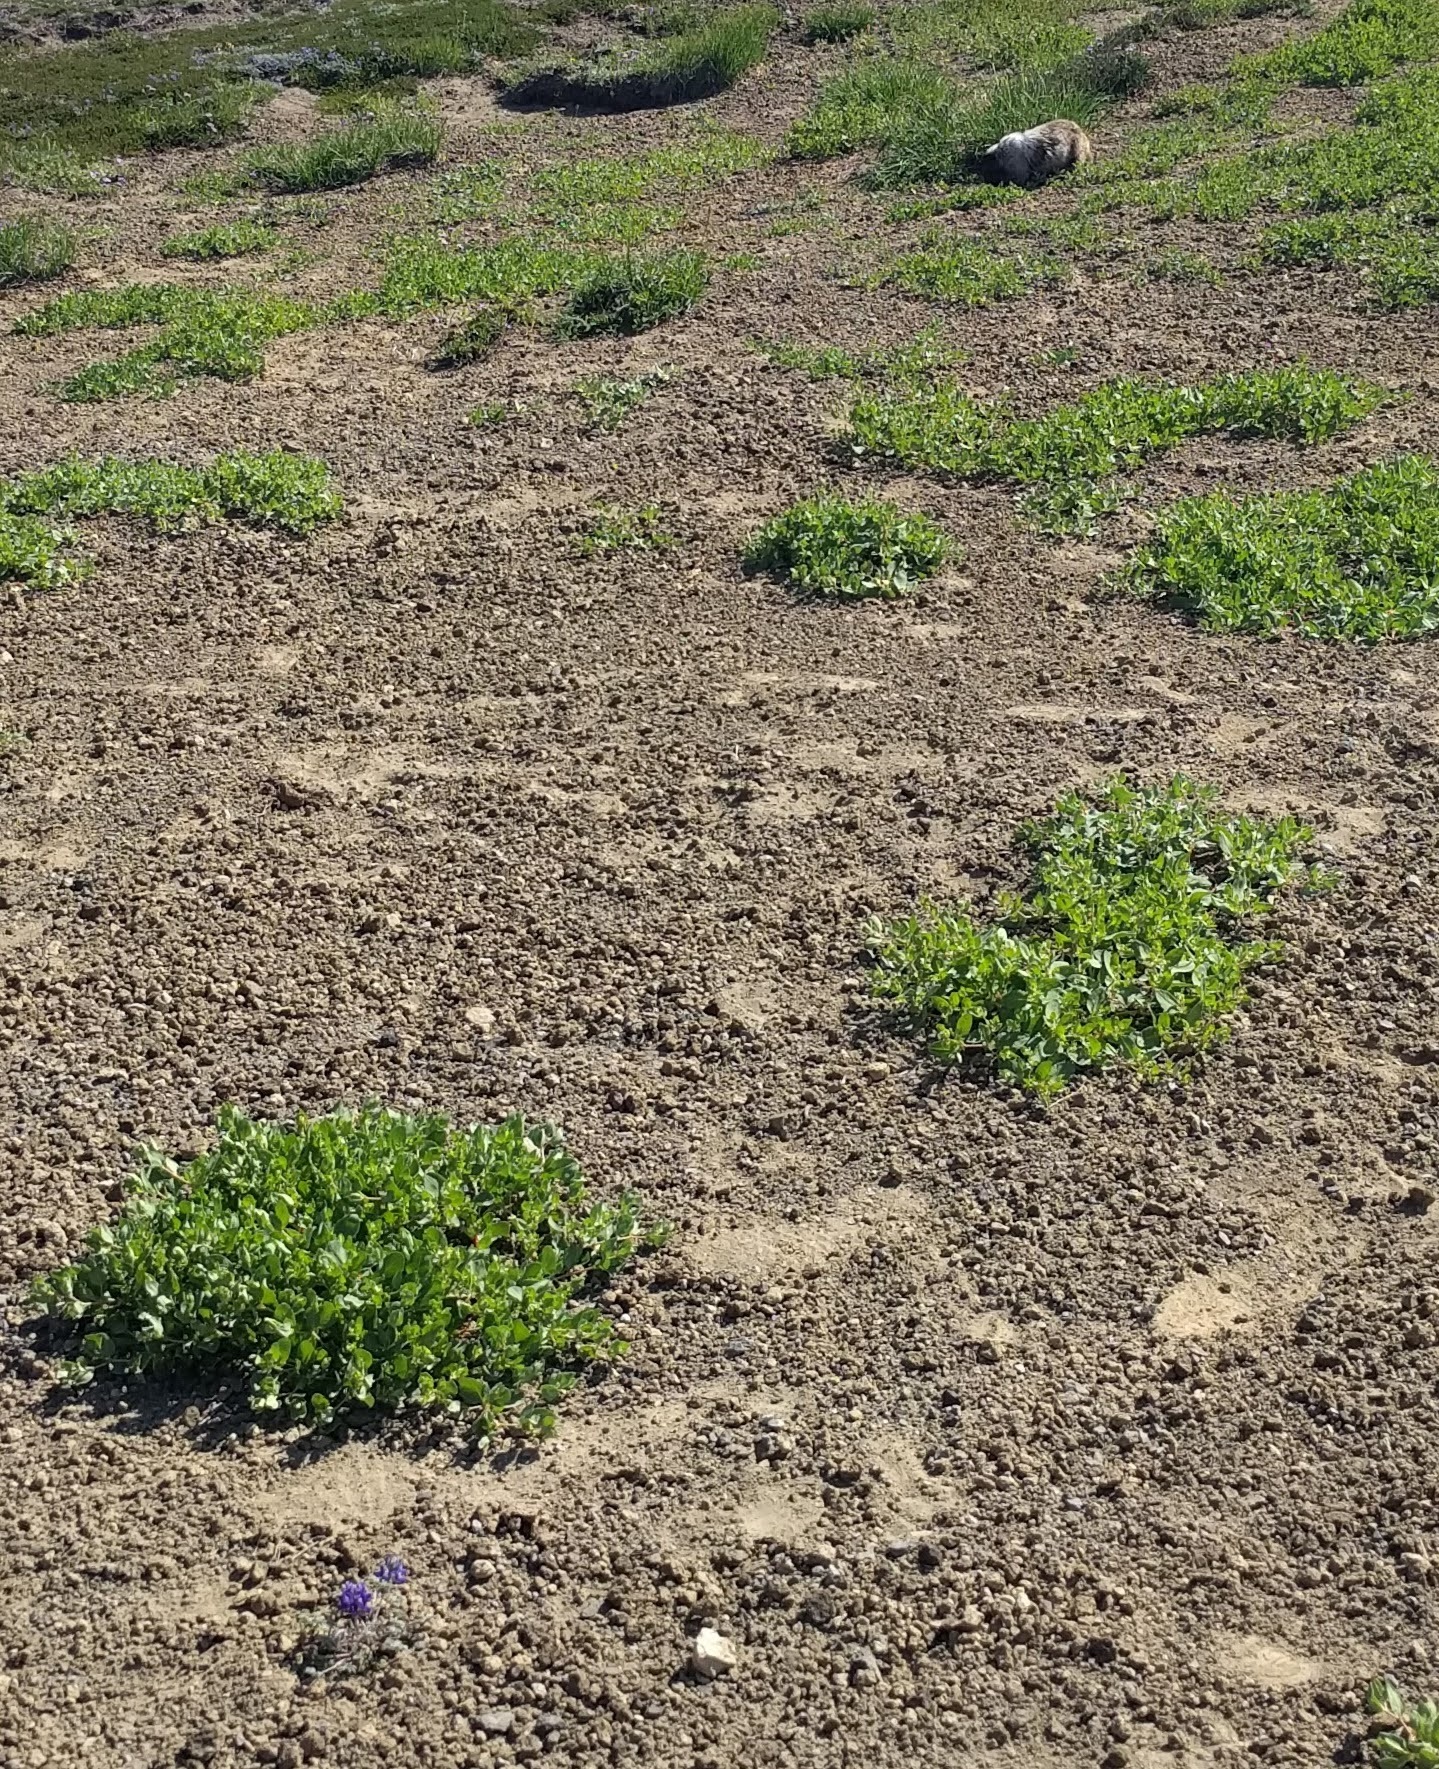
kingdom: Animalia
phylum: Chordata
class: Mammalia
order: Rodentia
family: Sciuridae
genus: Marmota
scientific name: Marmota caligata
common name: Hoary marmot
